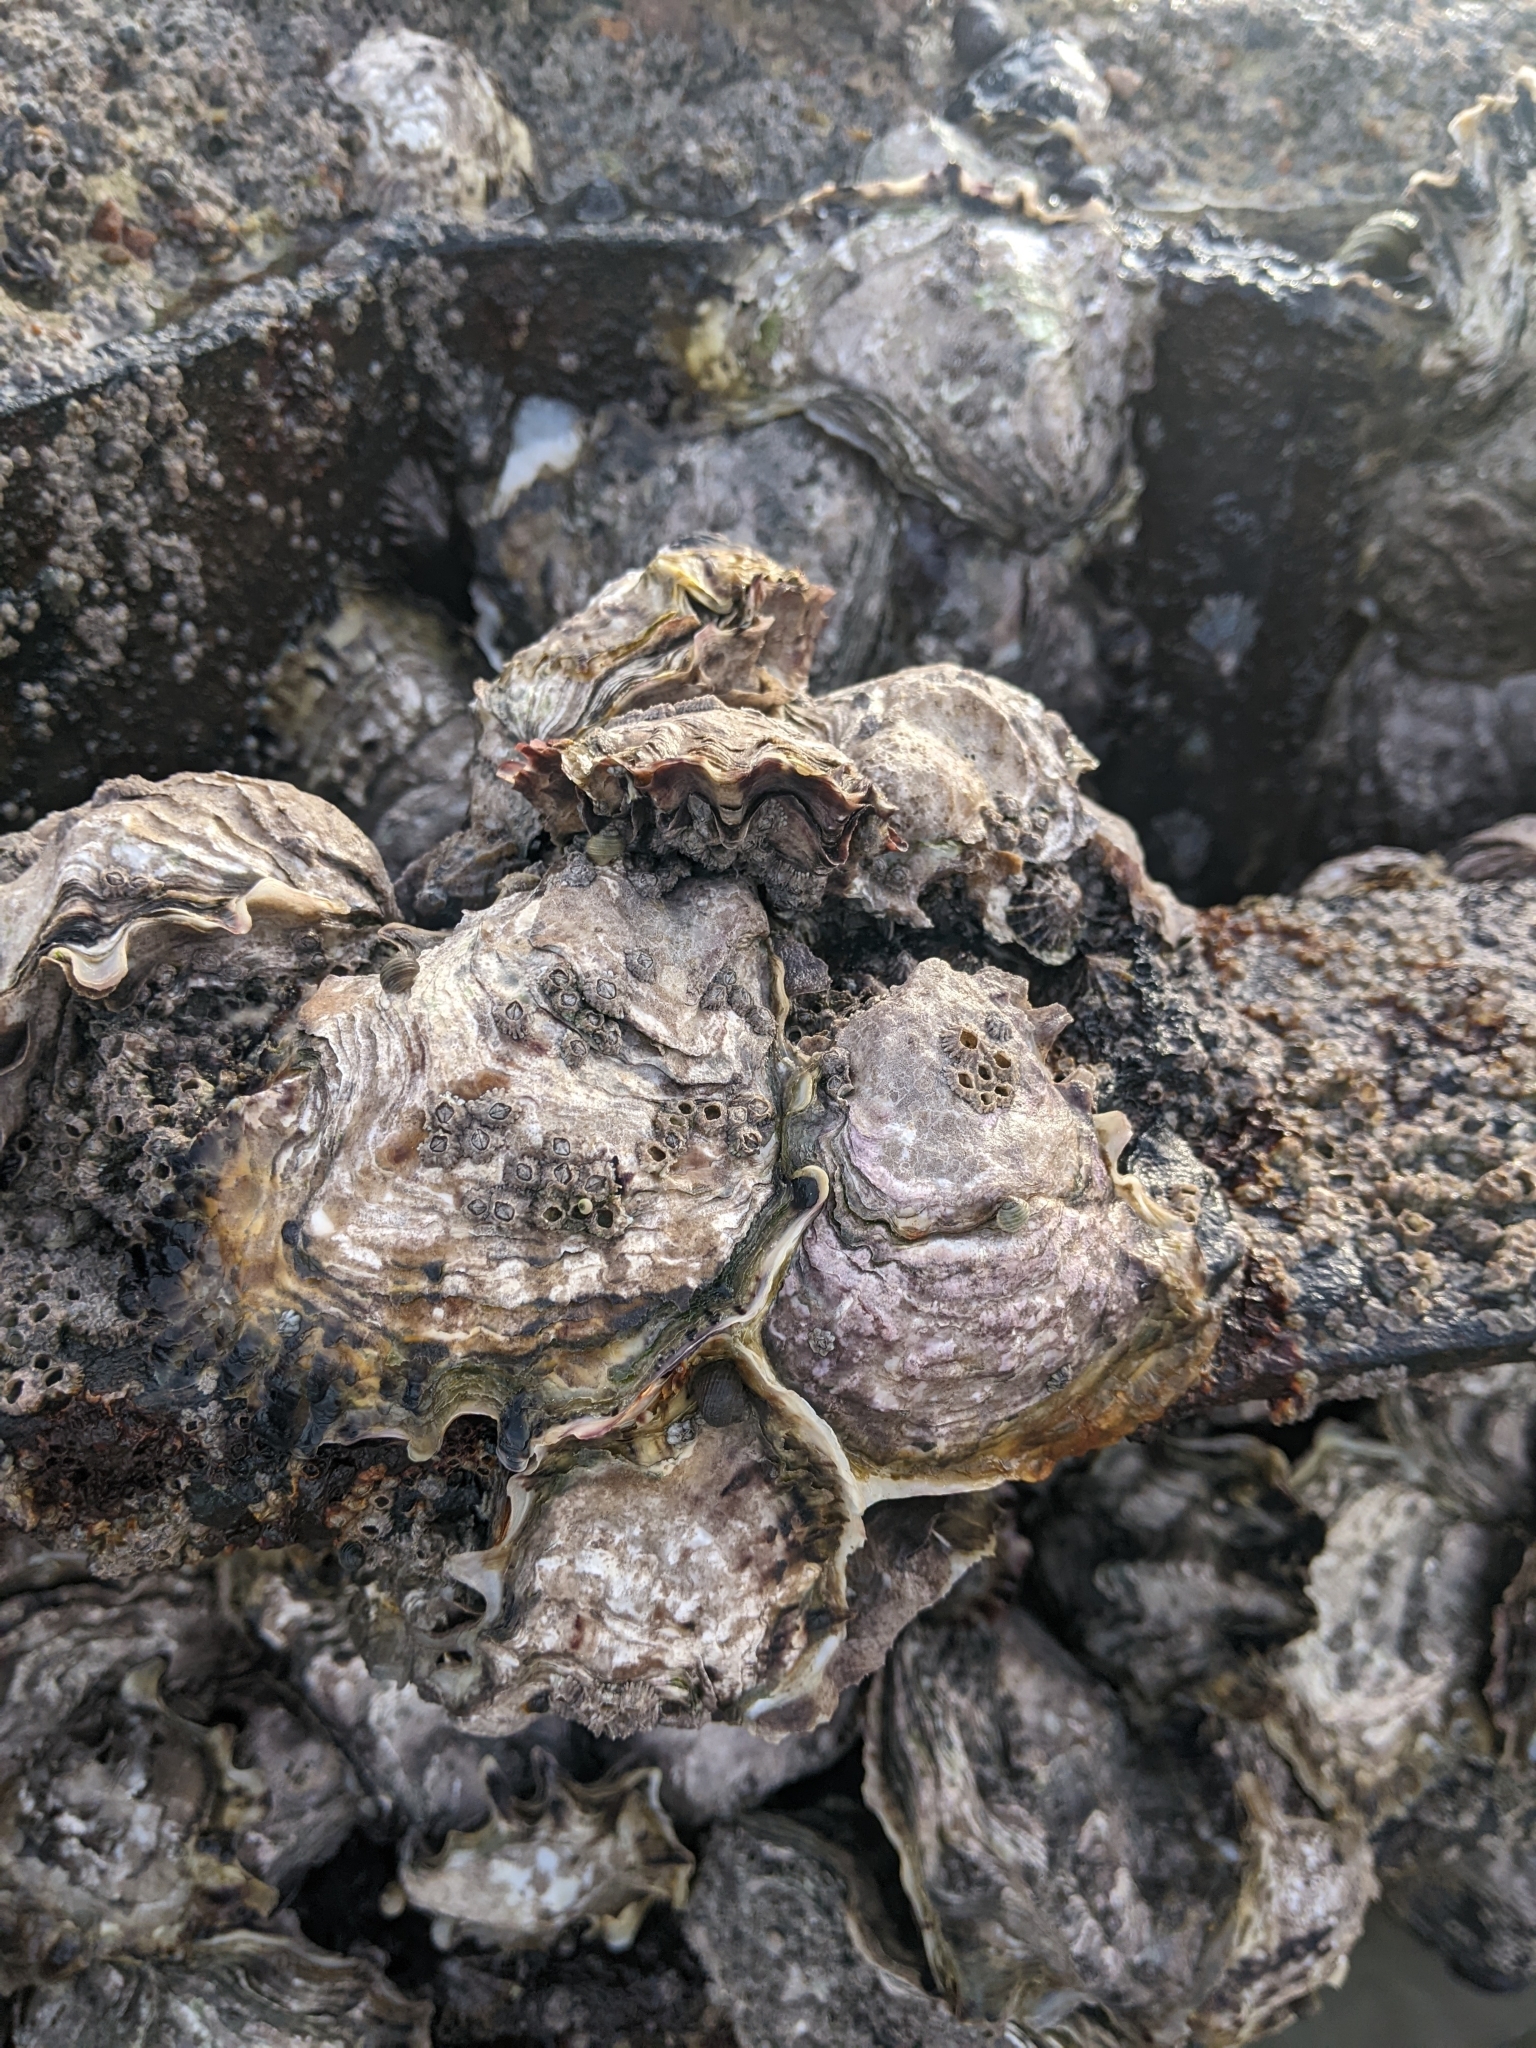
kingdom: Animalia
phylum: Mollusca
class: Bivalvia
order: Ostreida
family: Ostreidae
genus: Magallana
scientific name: Magallana gigas
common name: Pacific oyster
